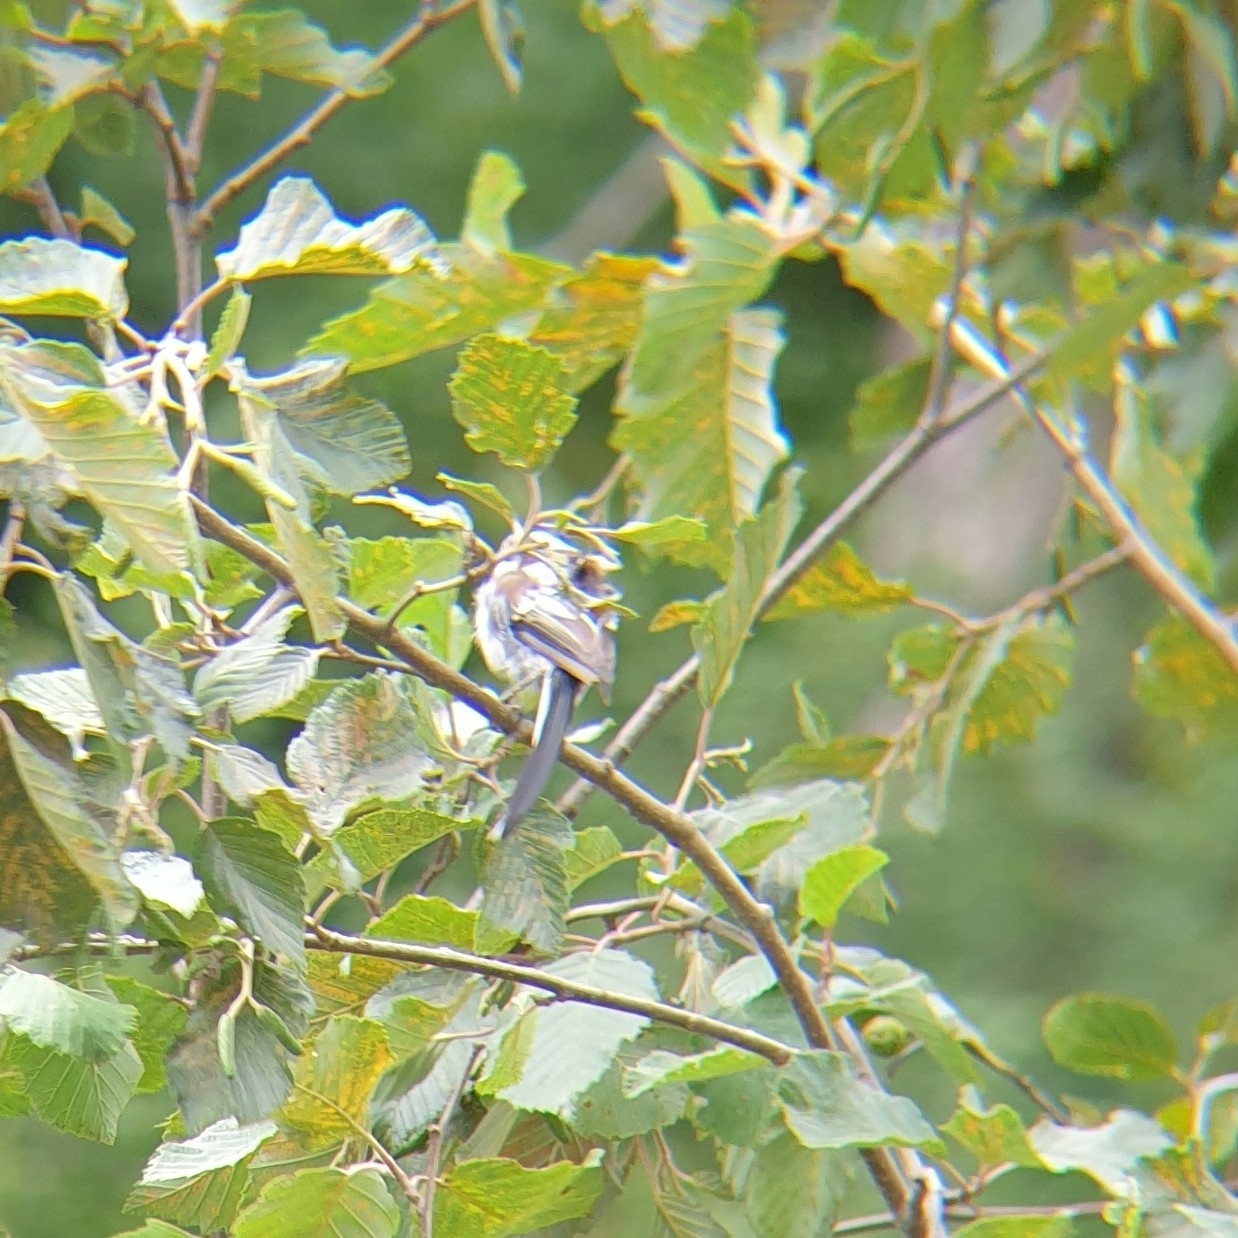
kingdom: Animalia
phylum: Chordata
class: Aves
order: Passeriformes
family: Aegithalidae
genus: Aegithalos
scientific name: Aegithalos caudatus
